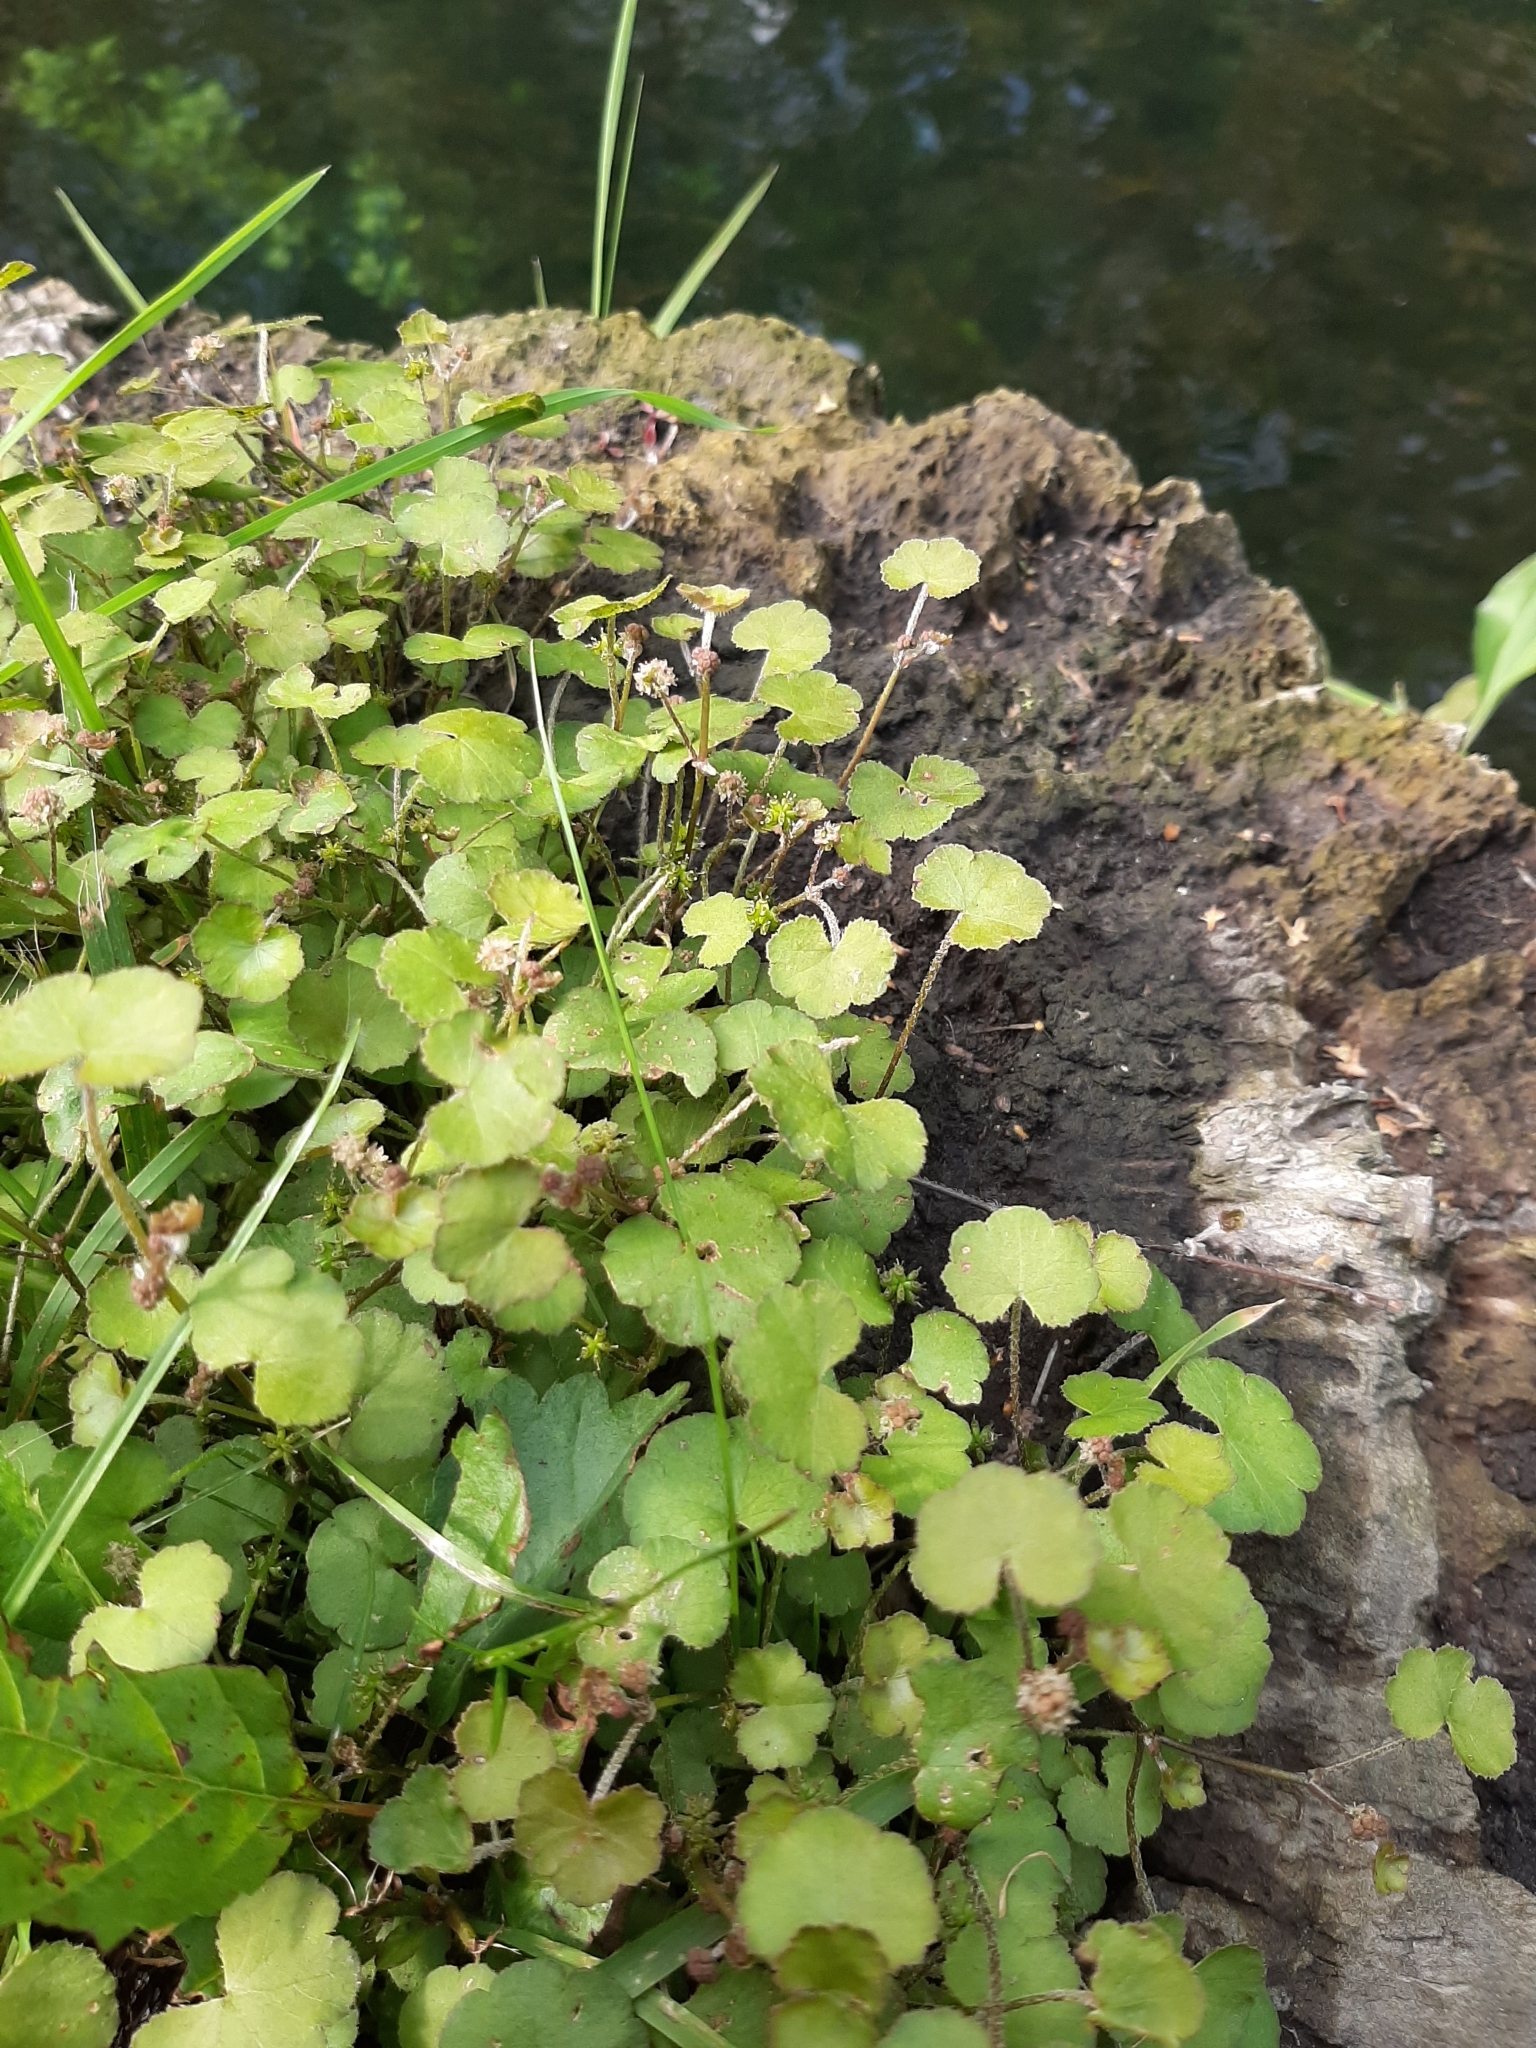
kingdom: Plantae
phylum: Tracheophyta
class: Magnoliopsida
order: Apiales
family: Araliaceae
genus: Hydrocotyle
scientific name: Hydrocotyle novae-zeelandiae
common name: New zealand pennywort
